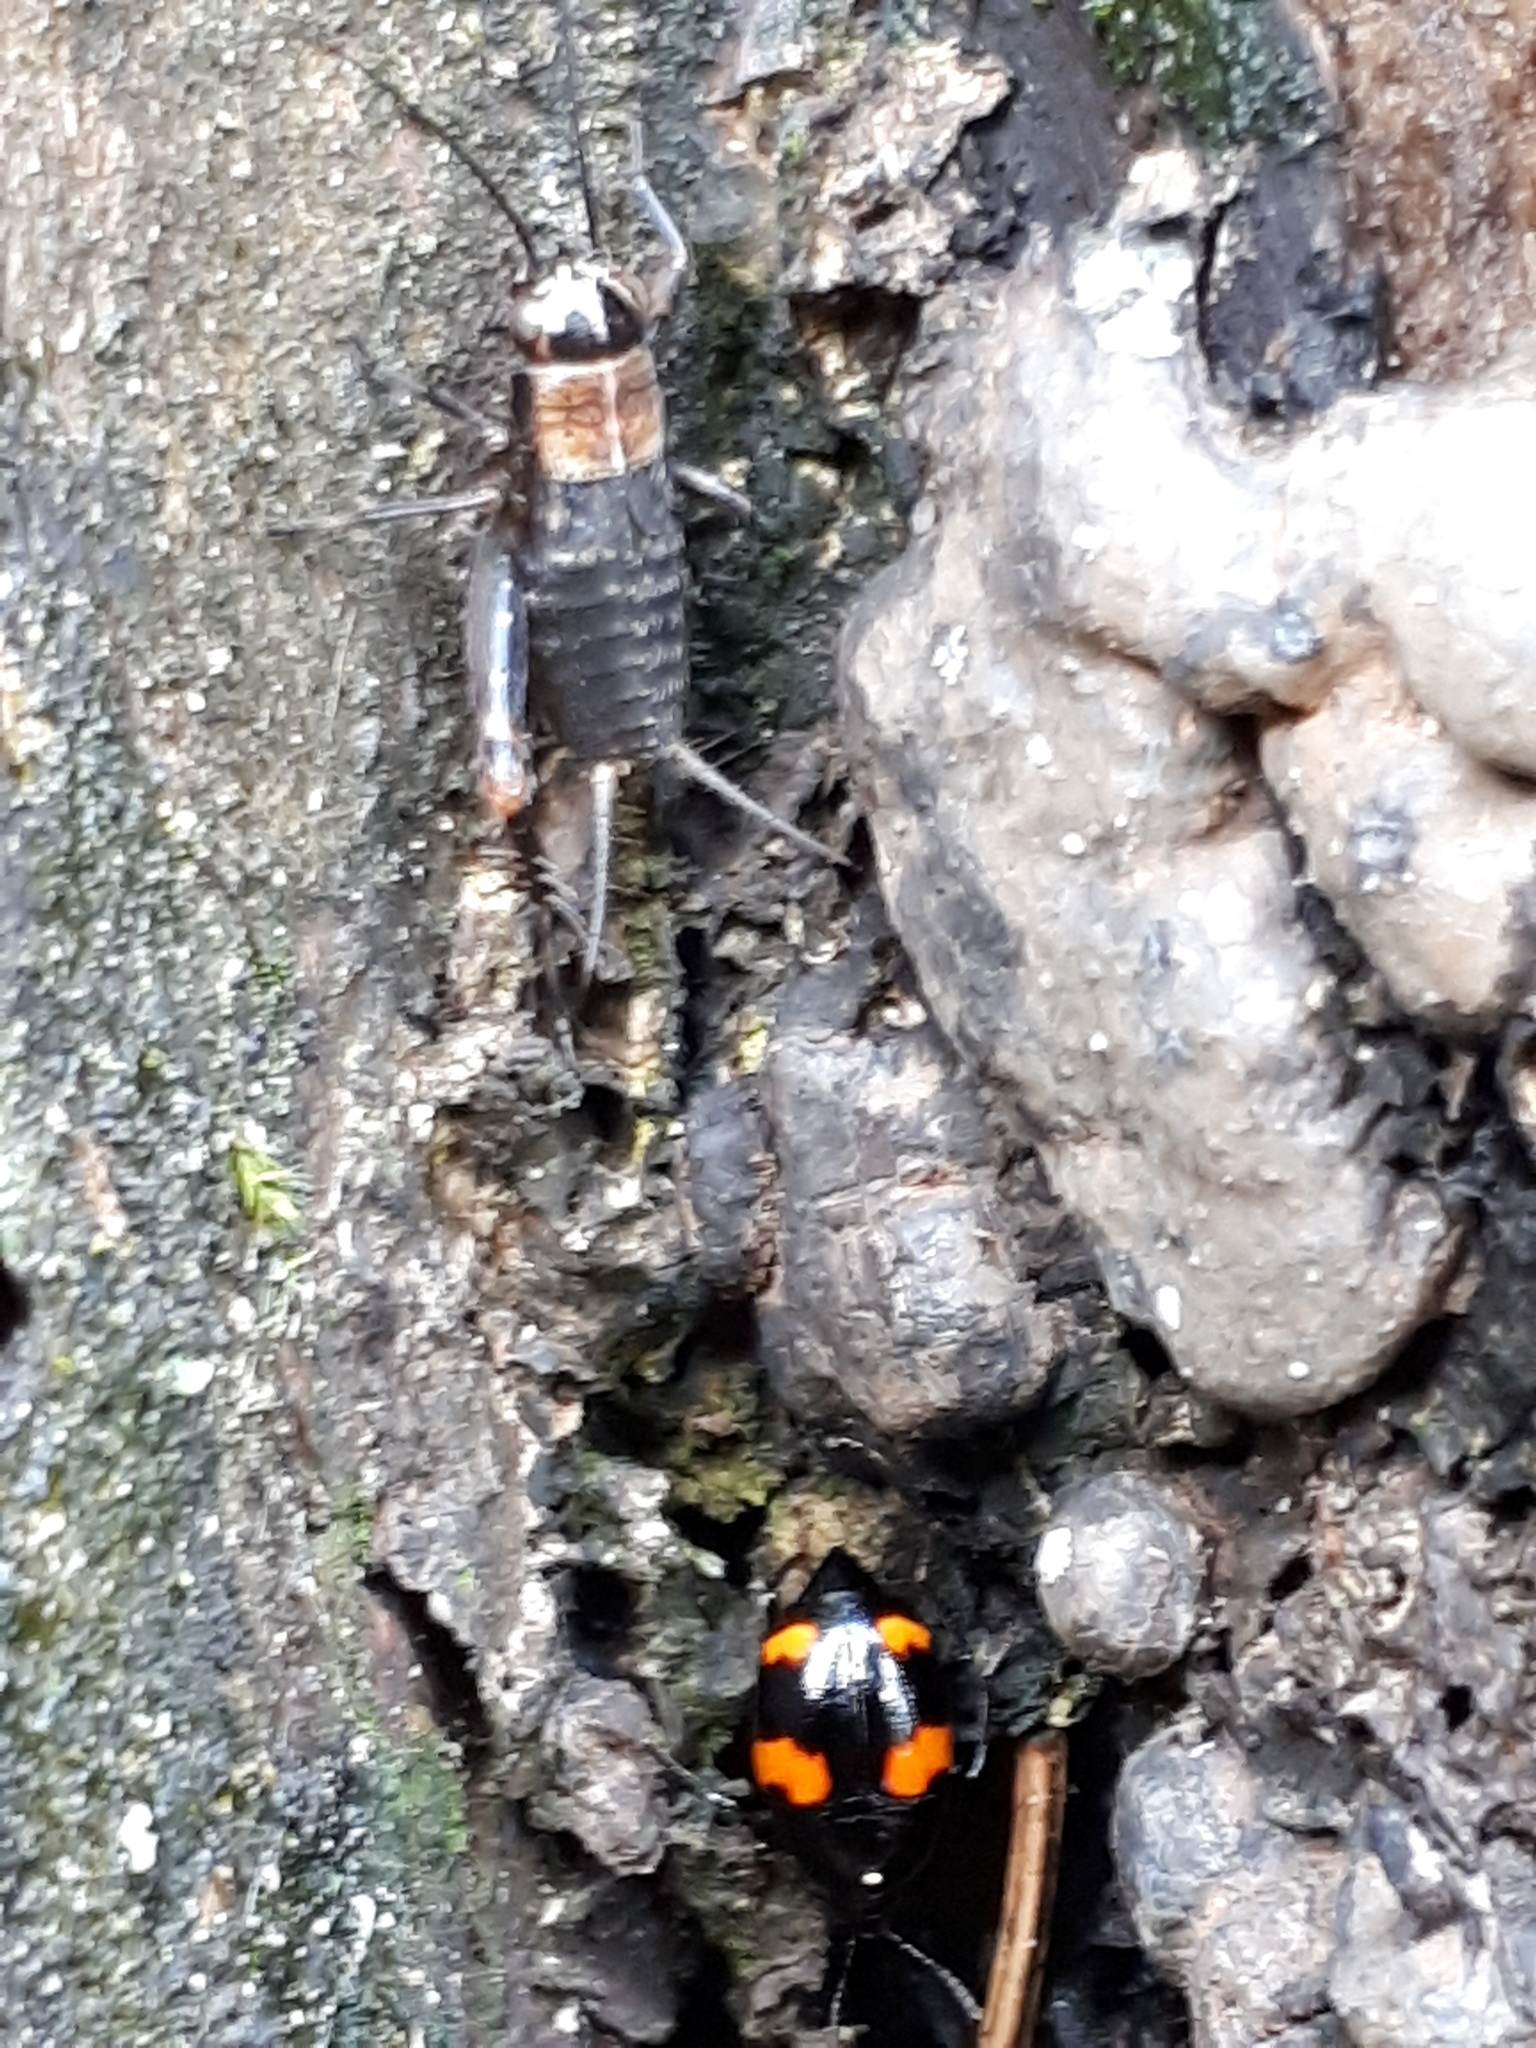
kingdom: Animalia
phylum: Arthropoda
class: Insecta
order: Coleoptera
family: Staphylinidae
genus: Scaphidium
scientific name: Scaphidium quadrimaculatum
